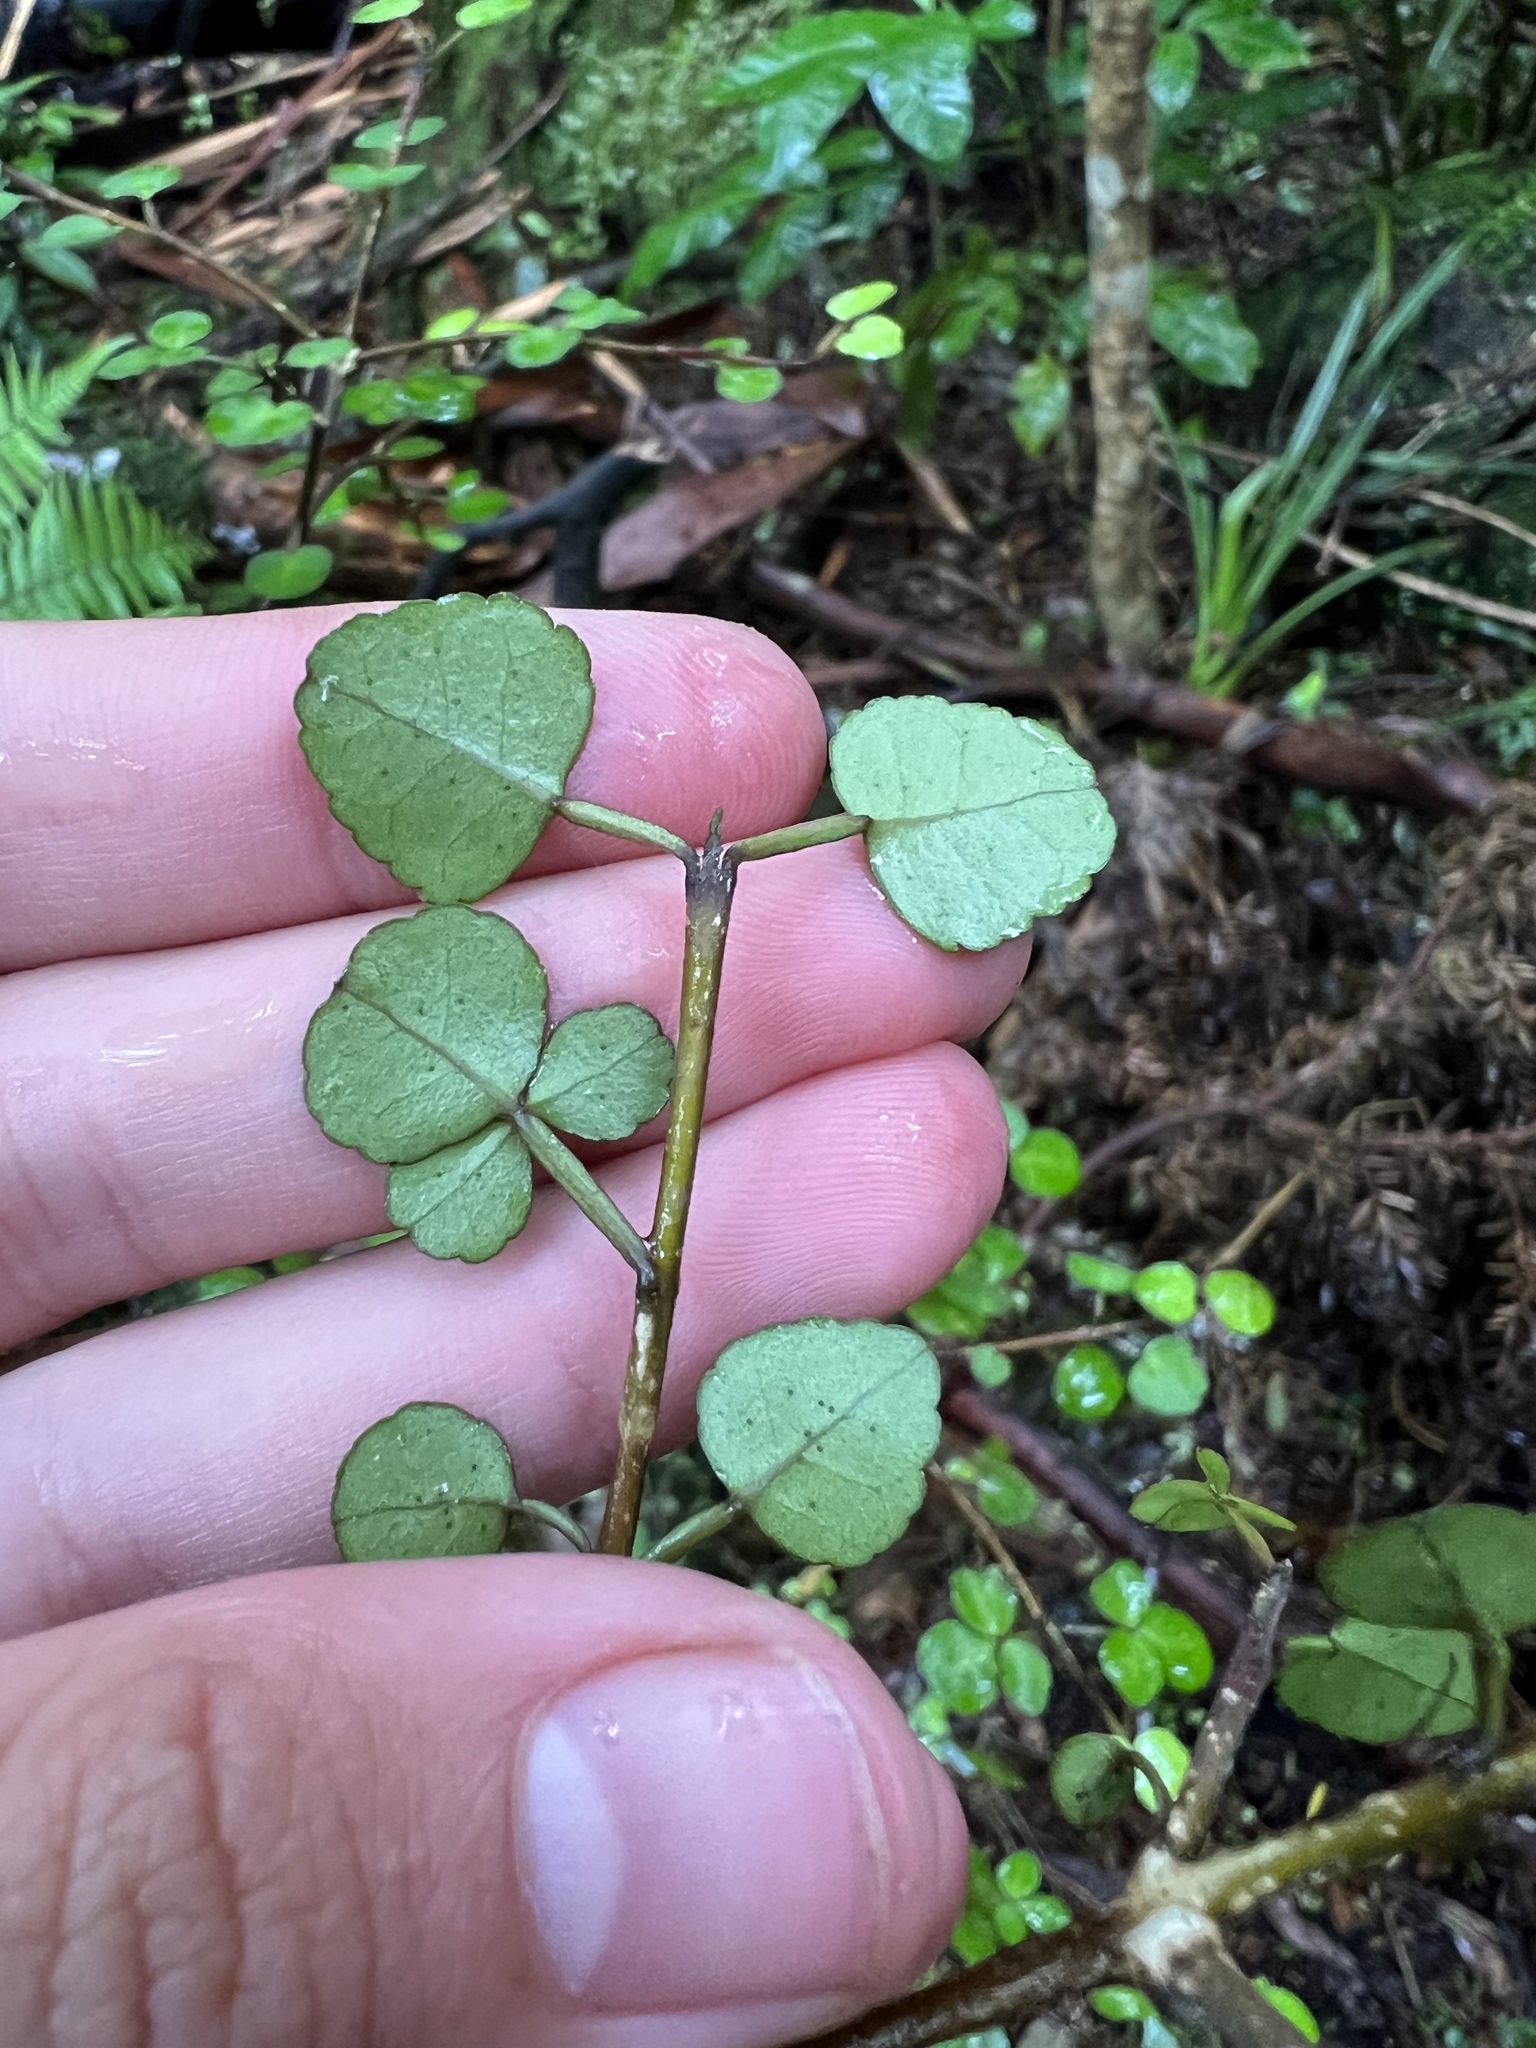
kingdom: Plantae
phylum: Tracheophyta
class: Magnoliopsida
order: Sapindales
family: Rutaceae
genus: Melicope
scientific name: Melicope simplex
